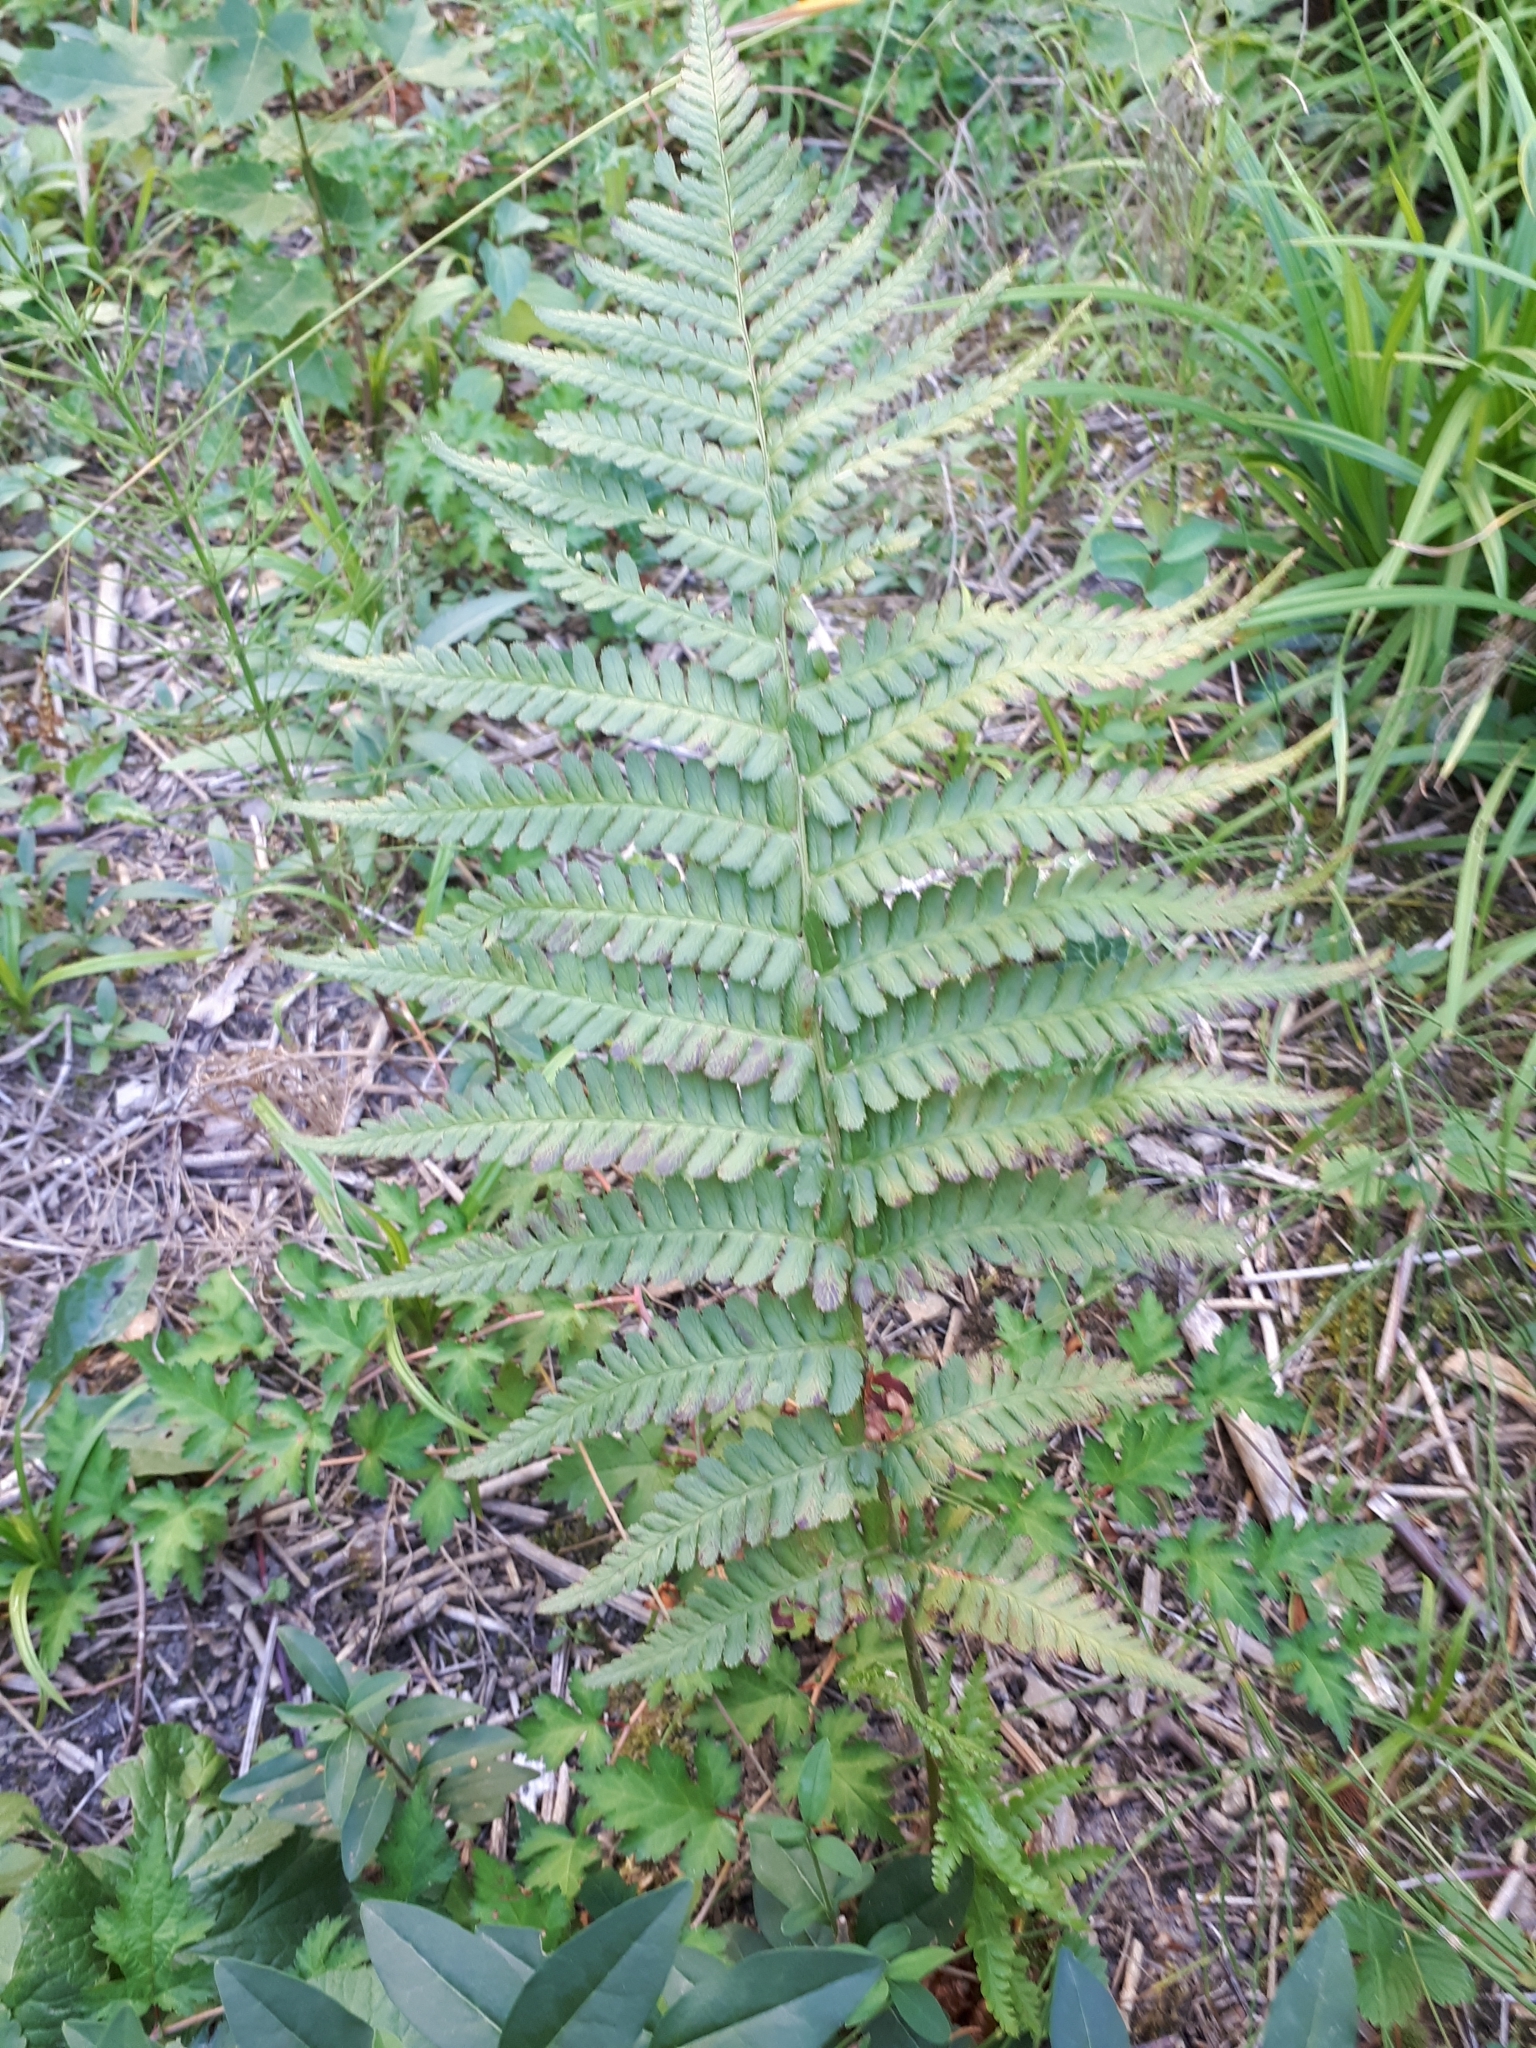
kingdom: Plantae
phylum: Tracheophyta
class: Polypodiopsida
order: Polypodiales
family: Dryopteridaceae
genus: Dryopteris
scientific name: Dryopteris filix-mas
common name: Male fern
